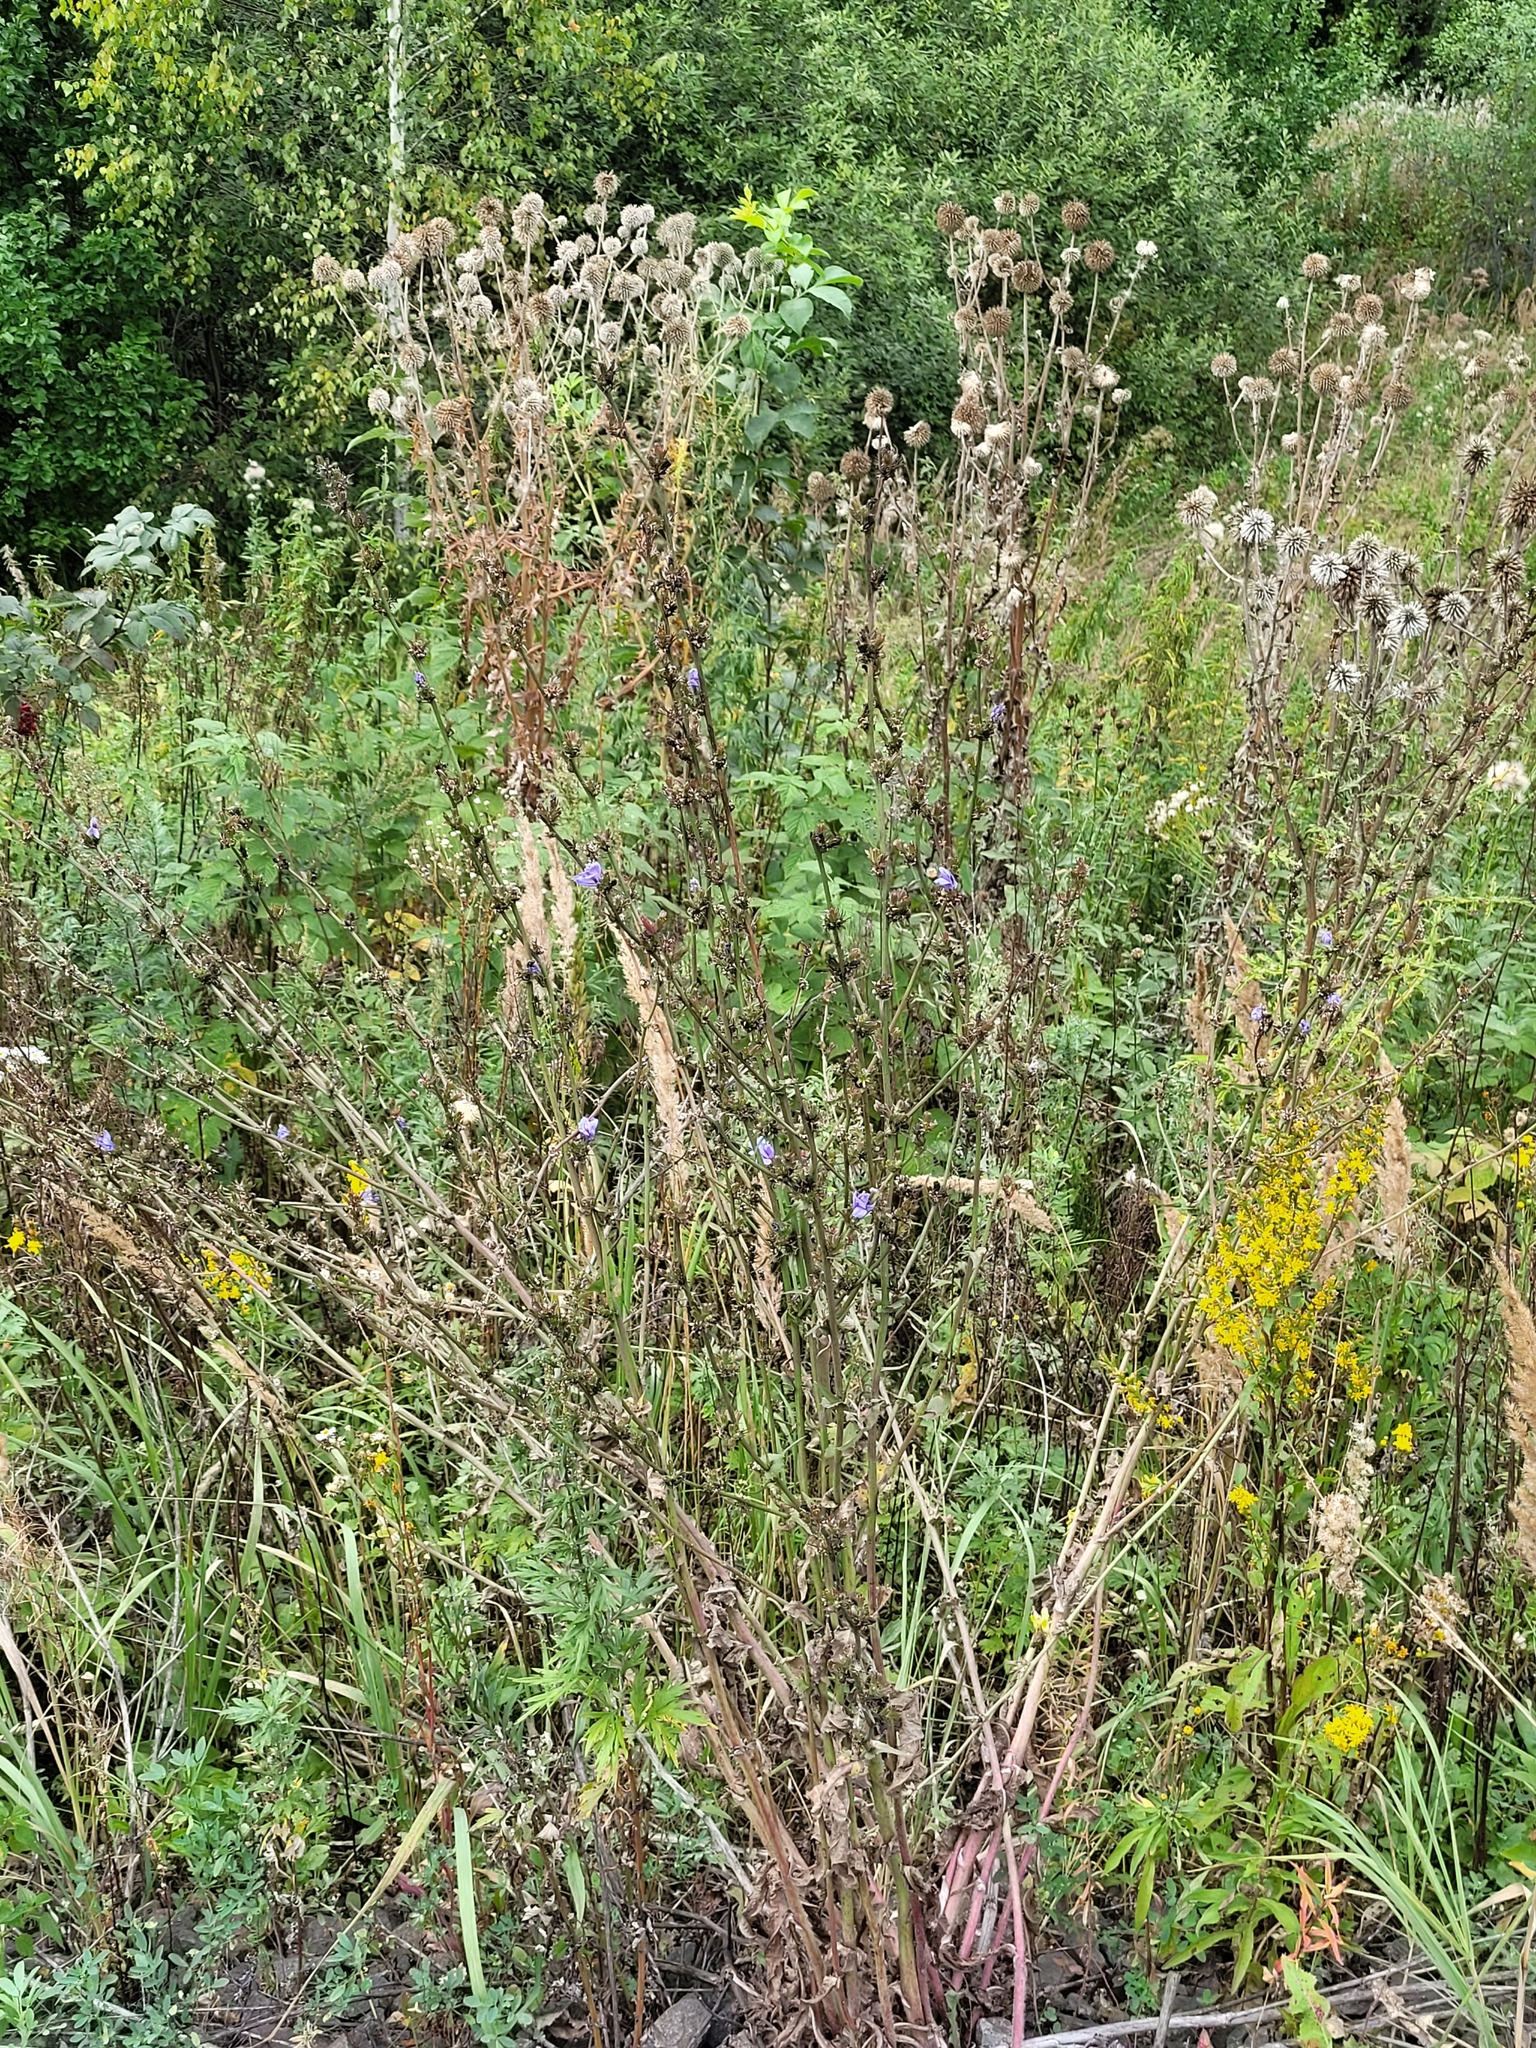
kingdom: Plantae
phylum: Tracheophyta
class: Magnoliopsida
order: Asterales
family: Asteraceae
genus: Cichorium
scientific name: Cichorium intybus
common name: Chicory
